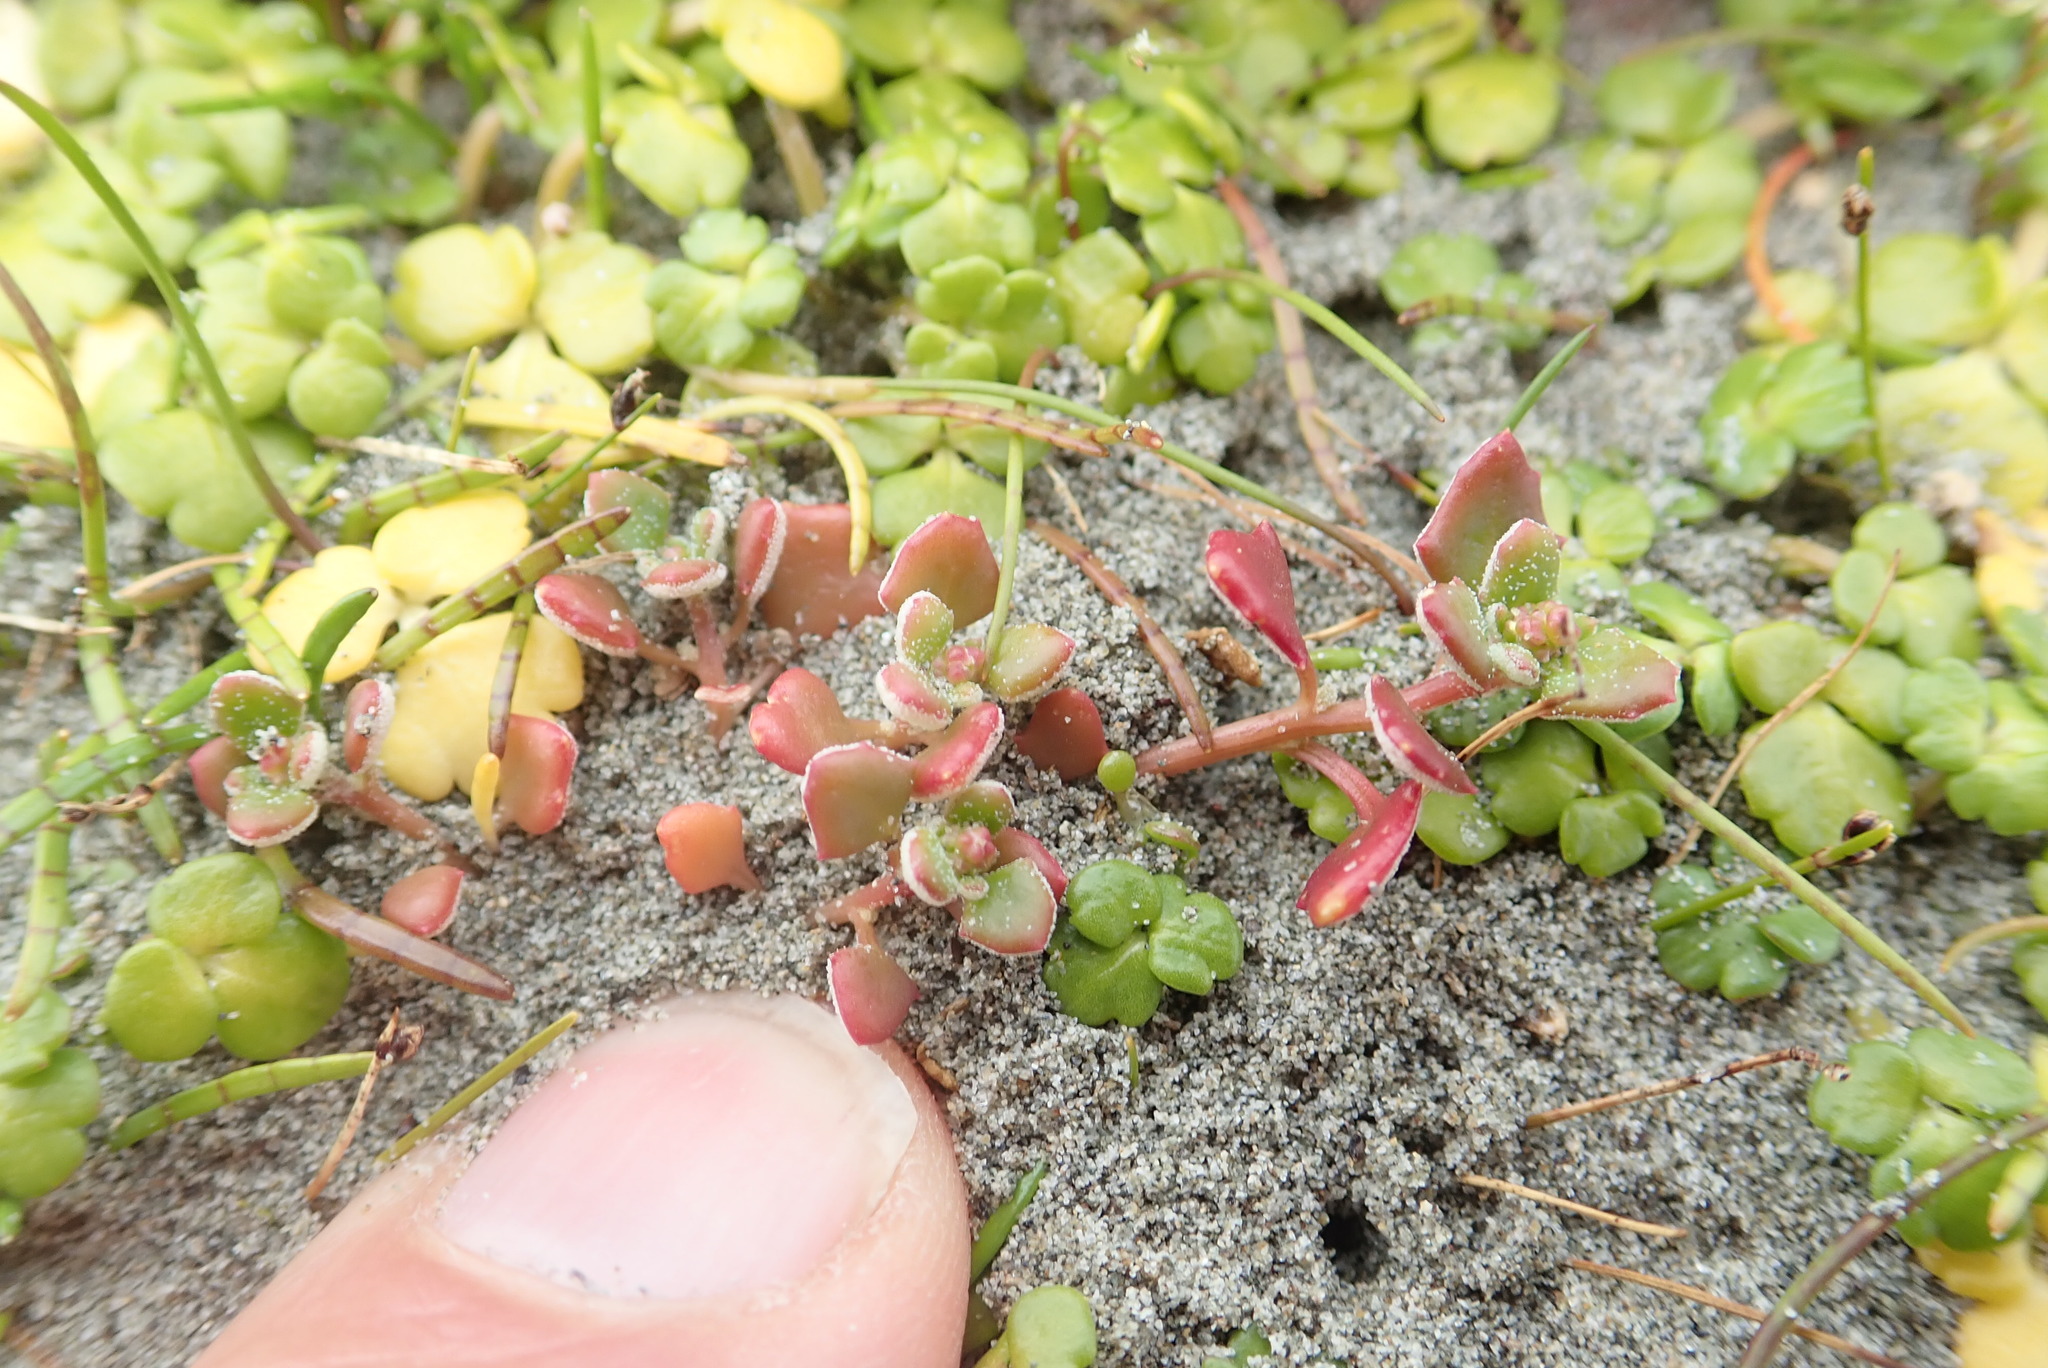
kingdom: Plantae
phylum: Tracheophyta
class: Magnoliopsida
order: Caryophyllales
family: Amaranthaceae
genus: Oxybasis
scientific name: Oxybasis ambigua
